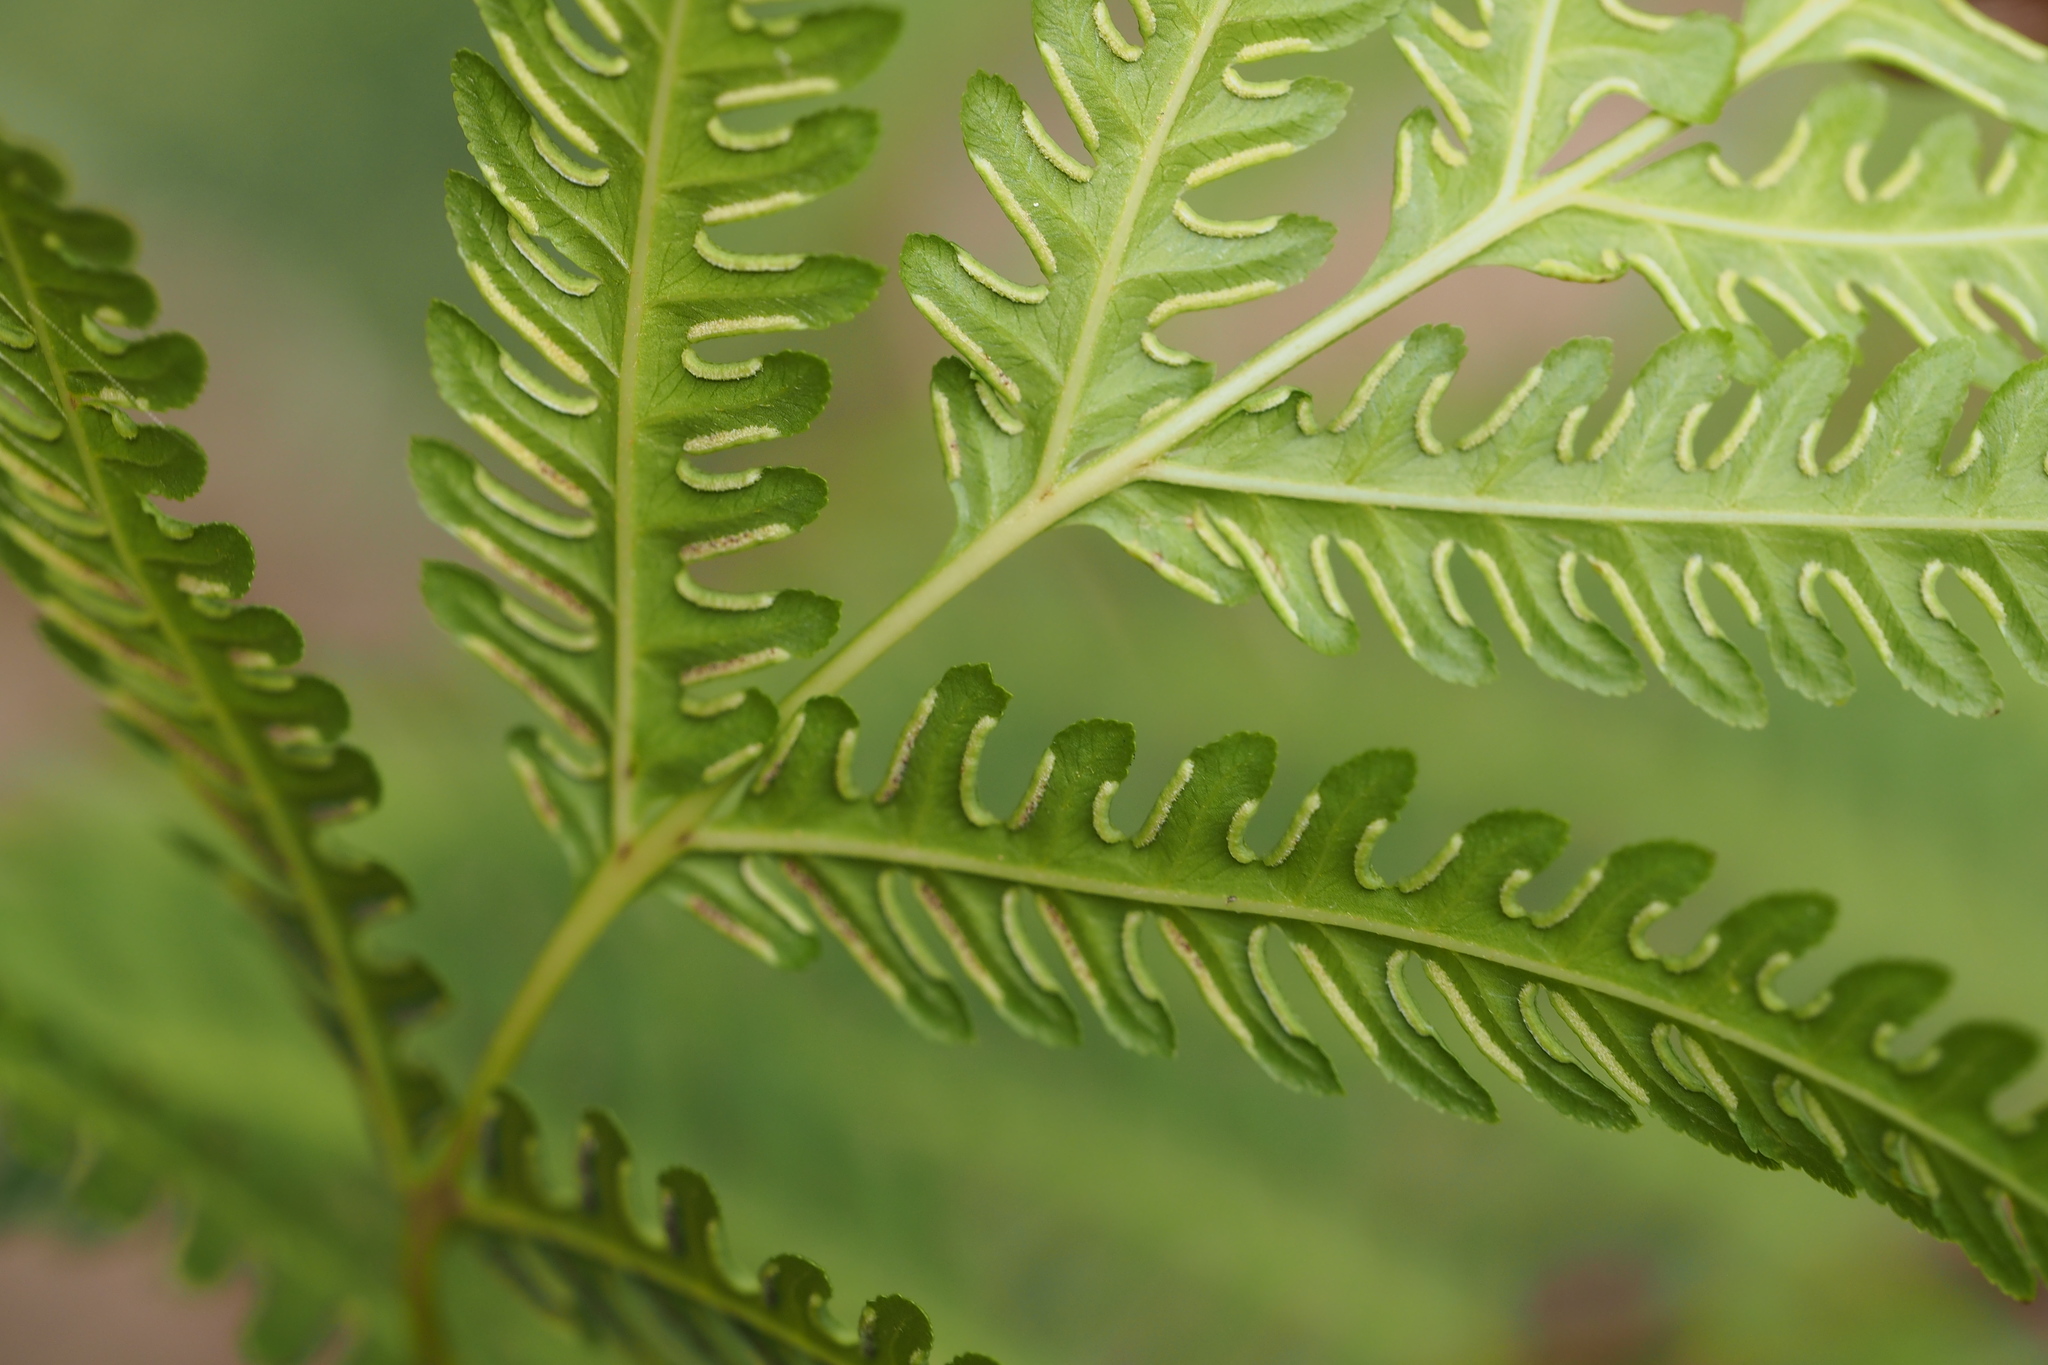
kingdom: Plantae
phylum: Tracheophyta
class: Polypodiopsida
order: Polypodiales
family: Pteridaceae
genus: Pteris
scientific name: Pteris wallichiana
